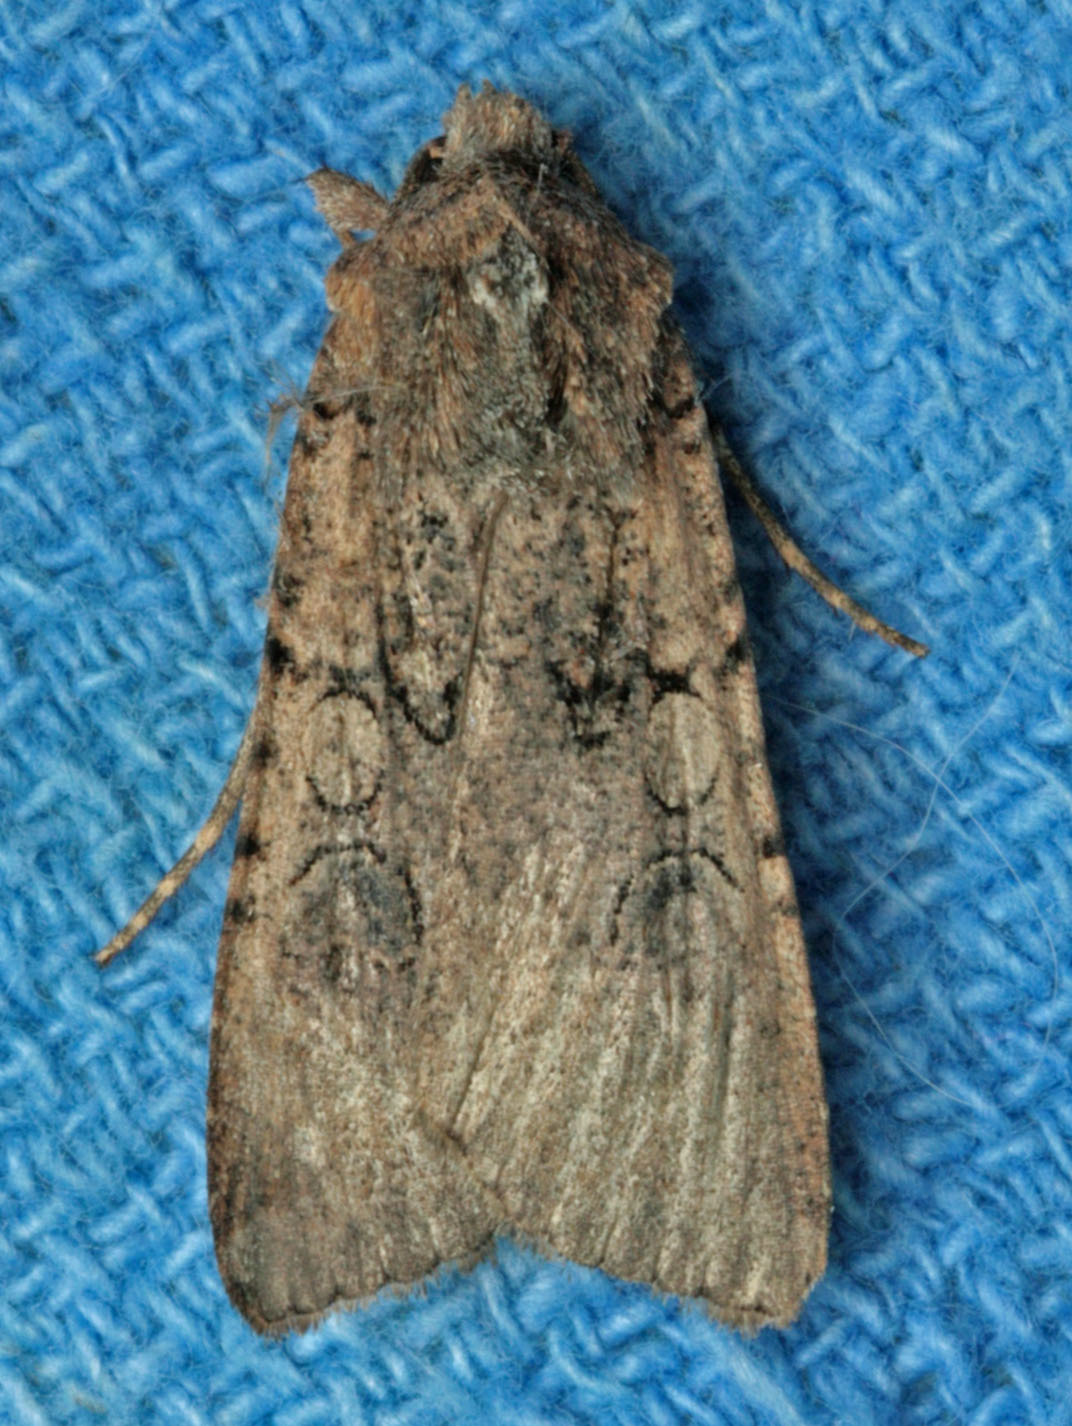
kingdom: Animalia
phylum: Arthropoda
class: Insecta
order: Lepidoptera
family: Noctuidae
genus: Peridroma
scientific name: Peridroma saucia
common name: Pearly underwing
